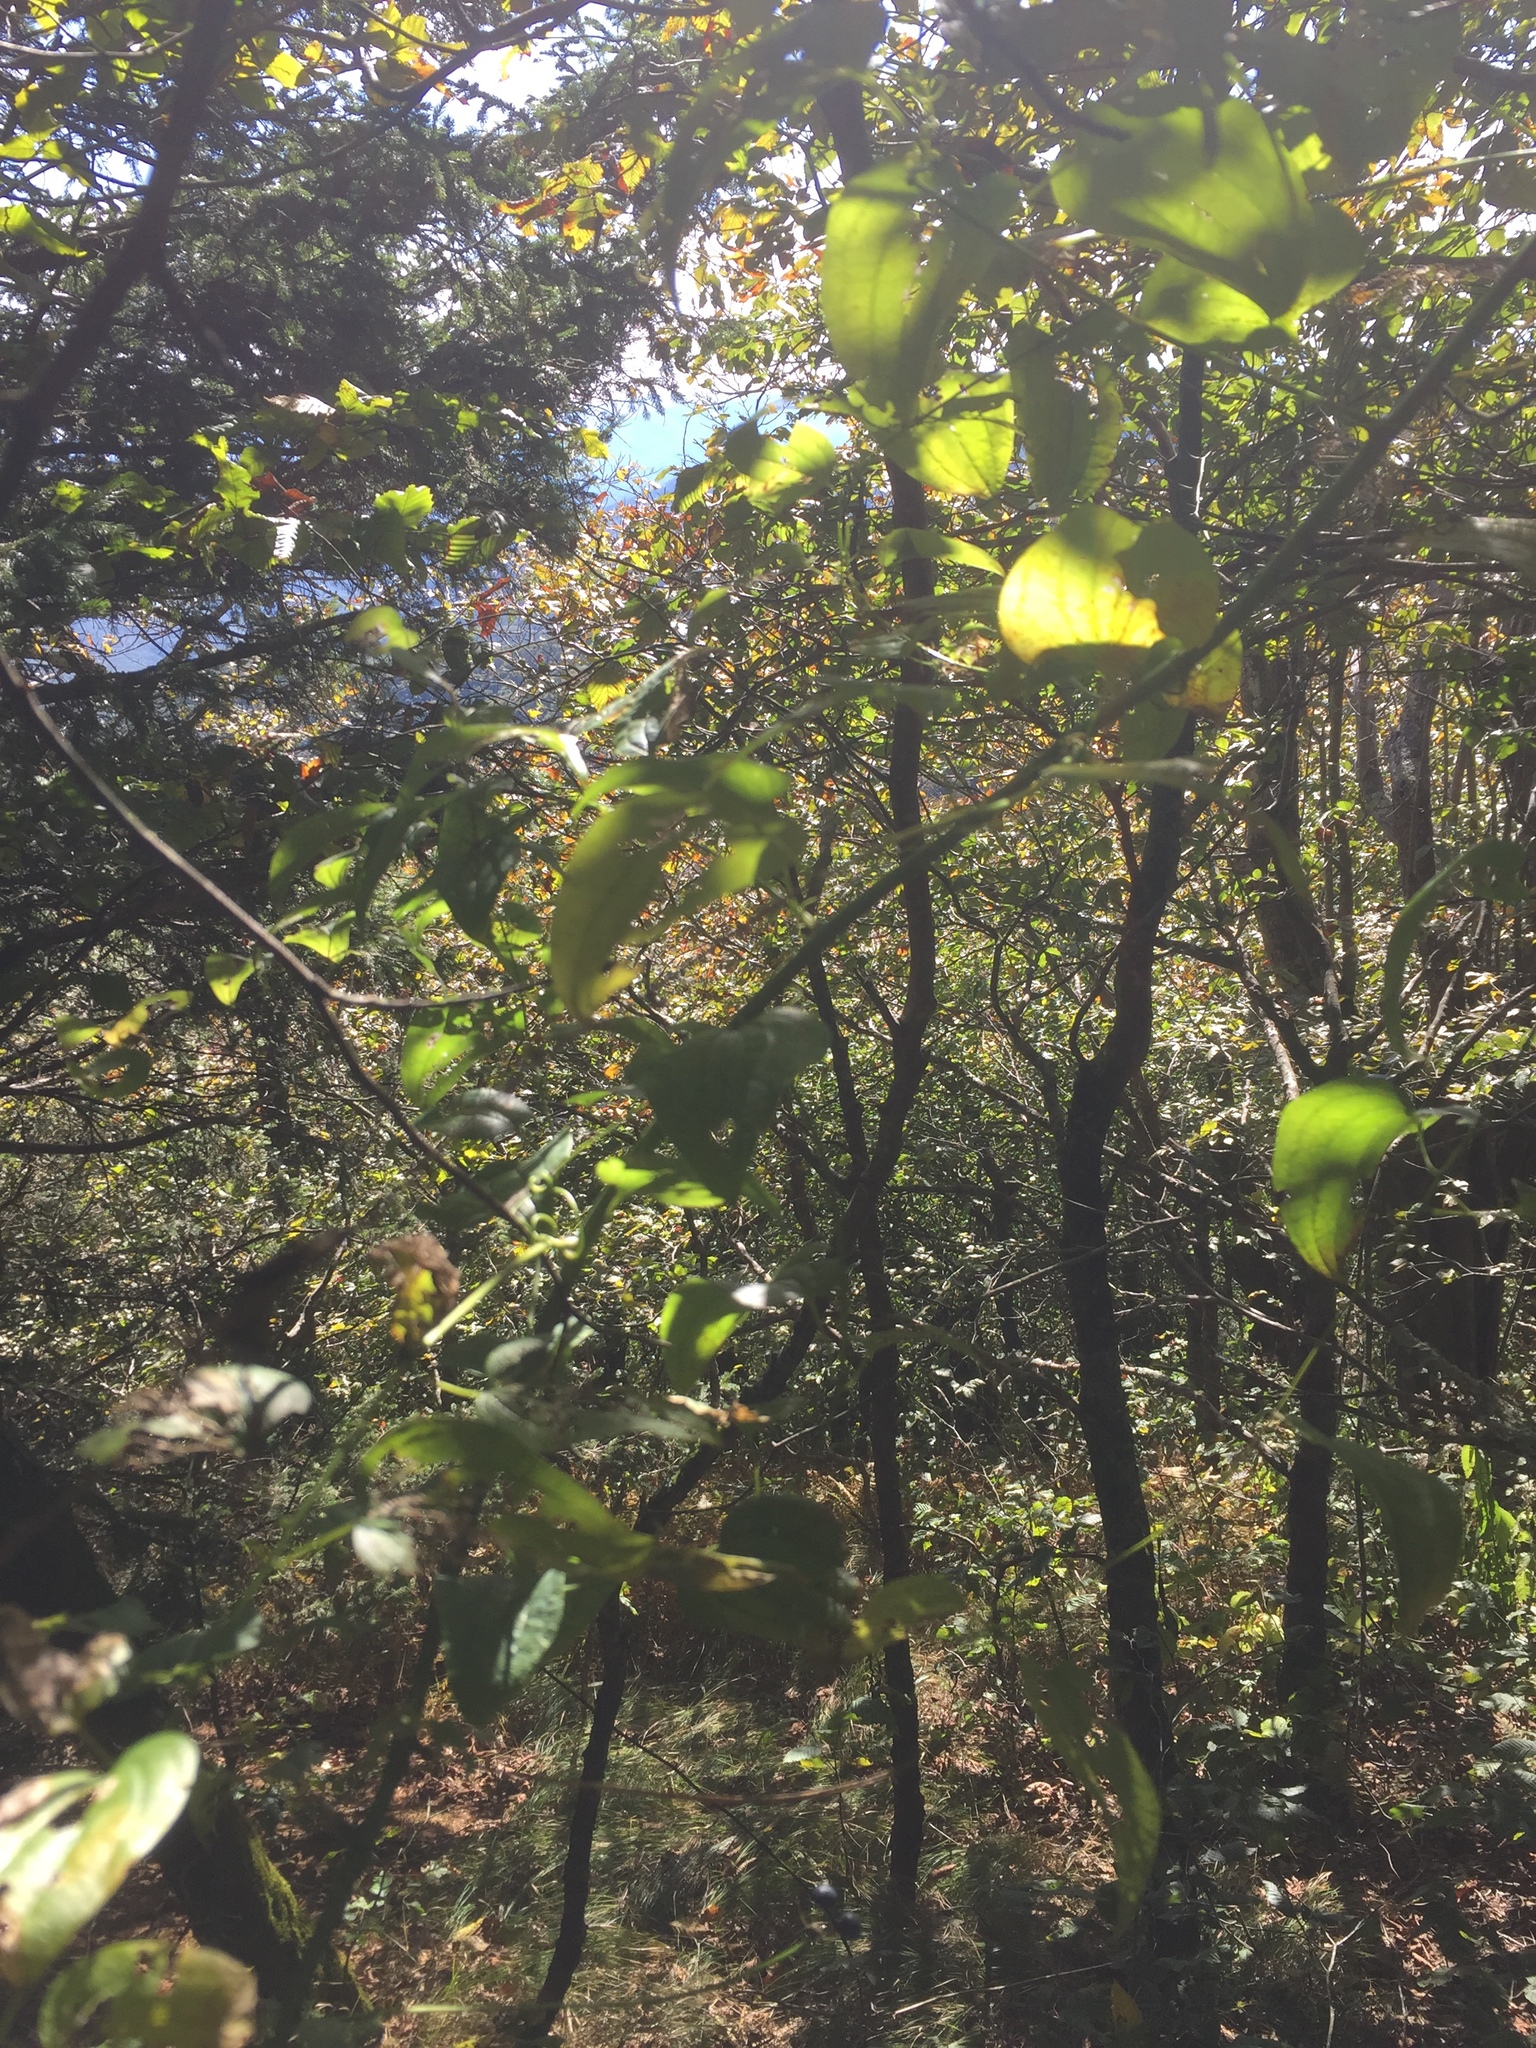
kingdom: Plantae
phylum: Tracheophyta
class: Liliopsida
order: Liliales
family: Smilacaceae
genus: Smilax
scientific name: Smilax herbacea
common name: Jacob's-ladder
